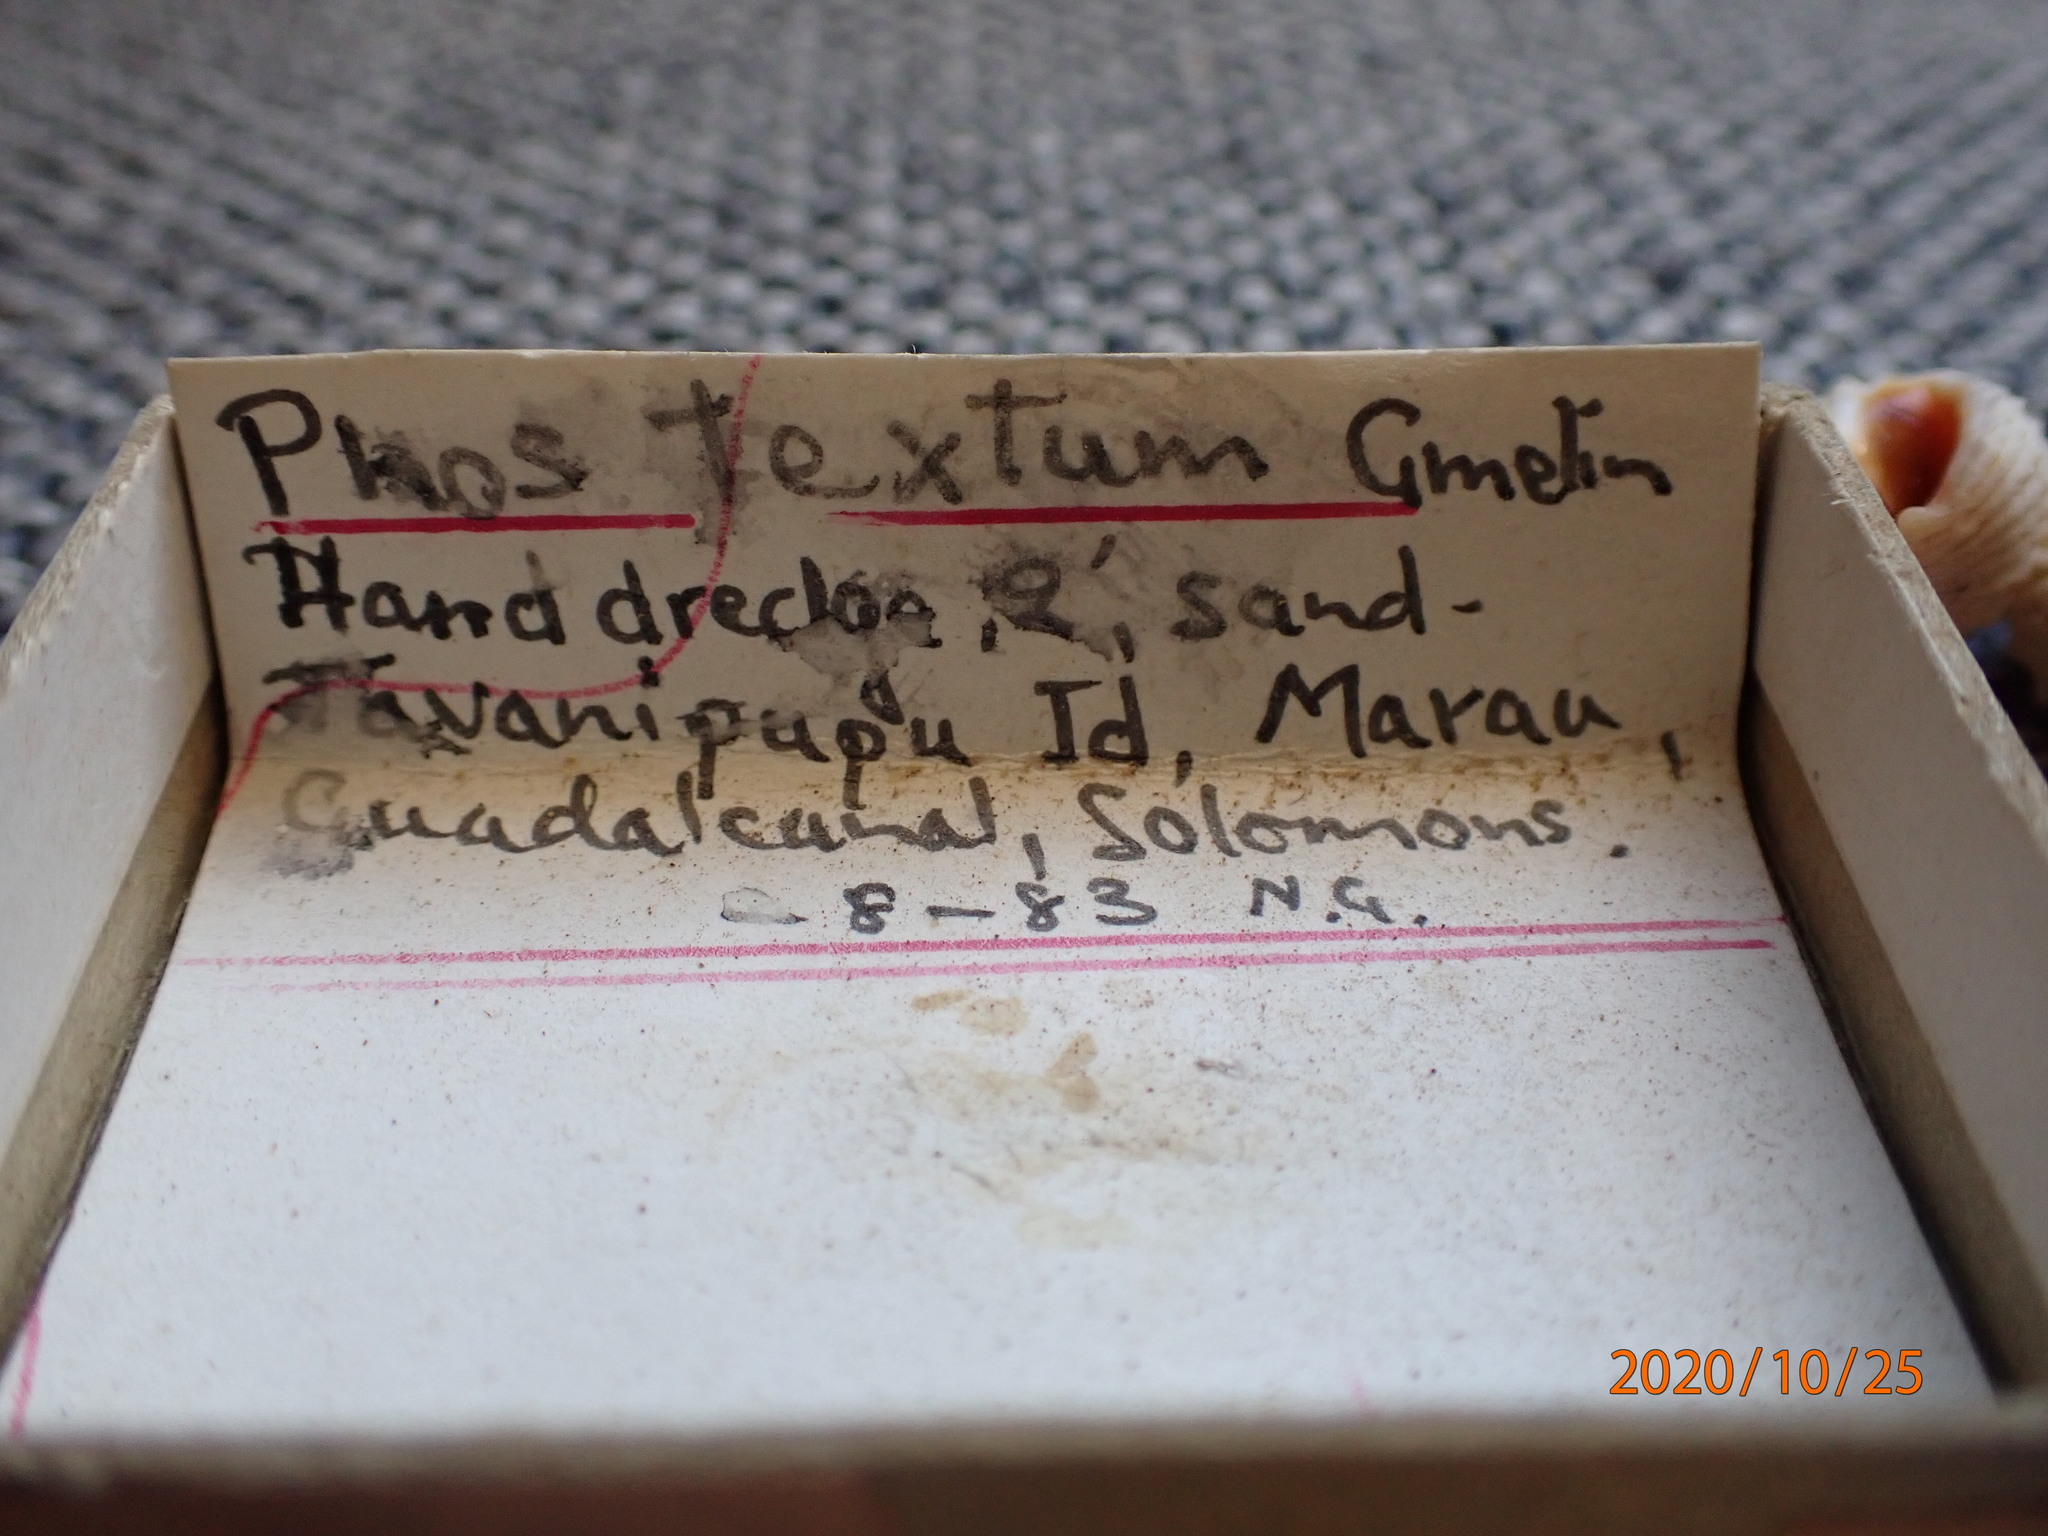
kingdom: Animalia
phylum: Mollusca
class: Gastropoda
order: Neogastropoda
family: Nassariidae
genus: Phos
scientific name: Phos textus
